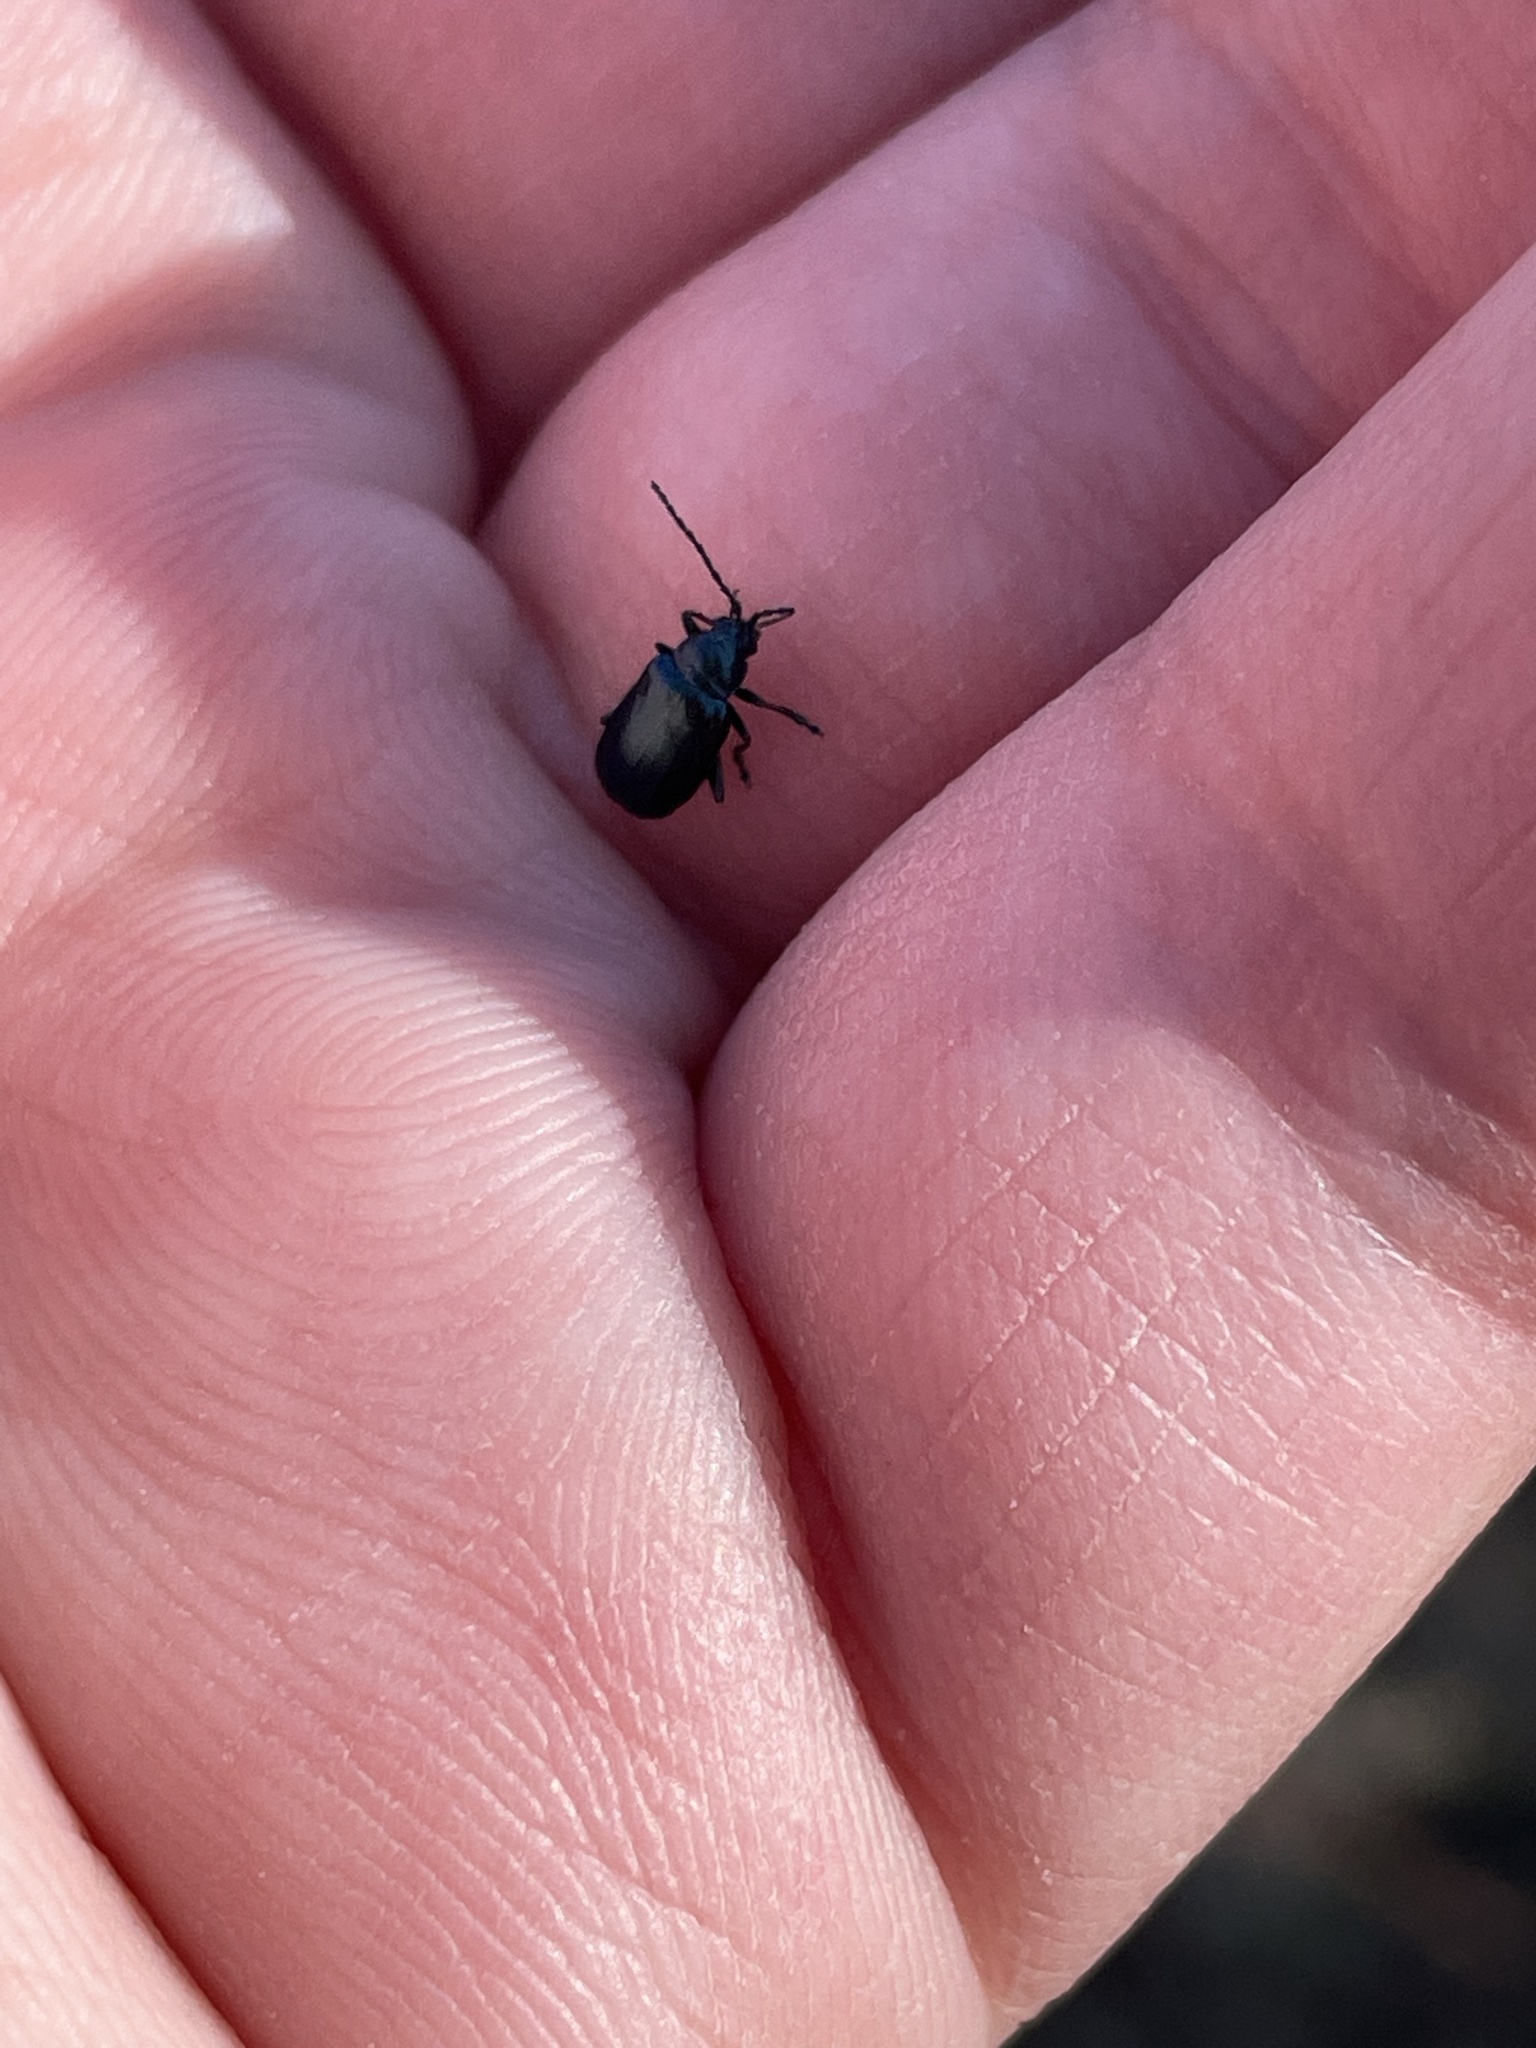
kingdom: Animalia
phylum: Arthropoda
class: Insecta
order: Coleoptera
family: Chrysomelidae
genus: Altica
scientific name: Altica ambiens
